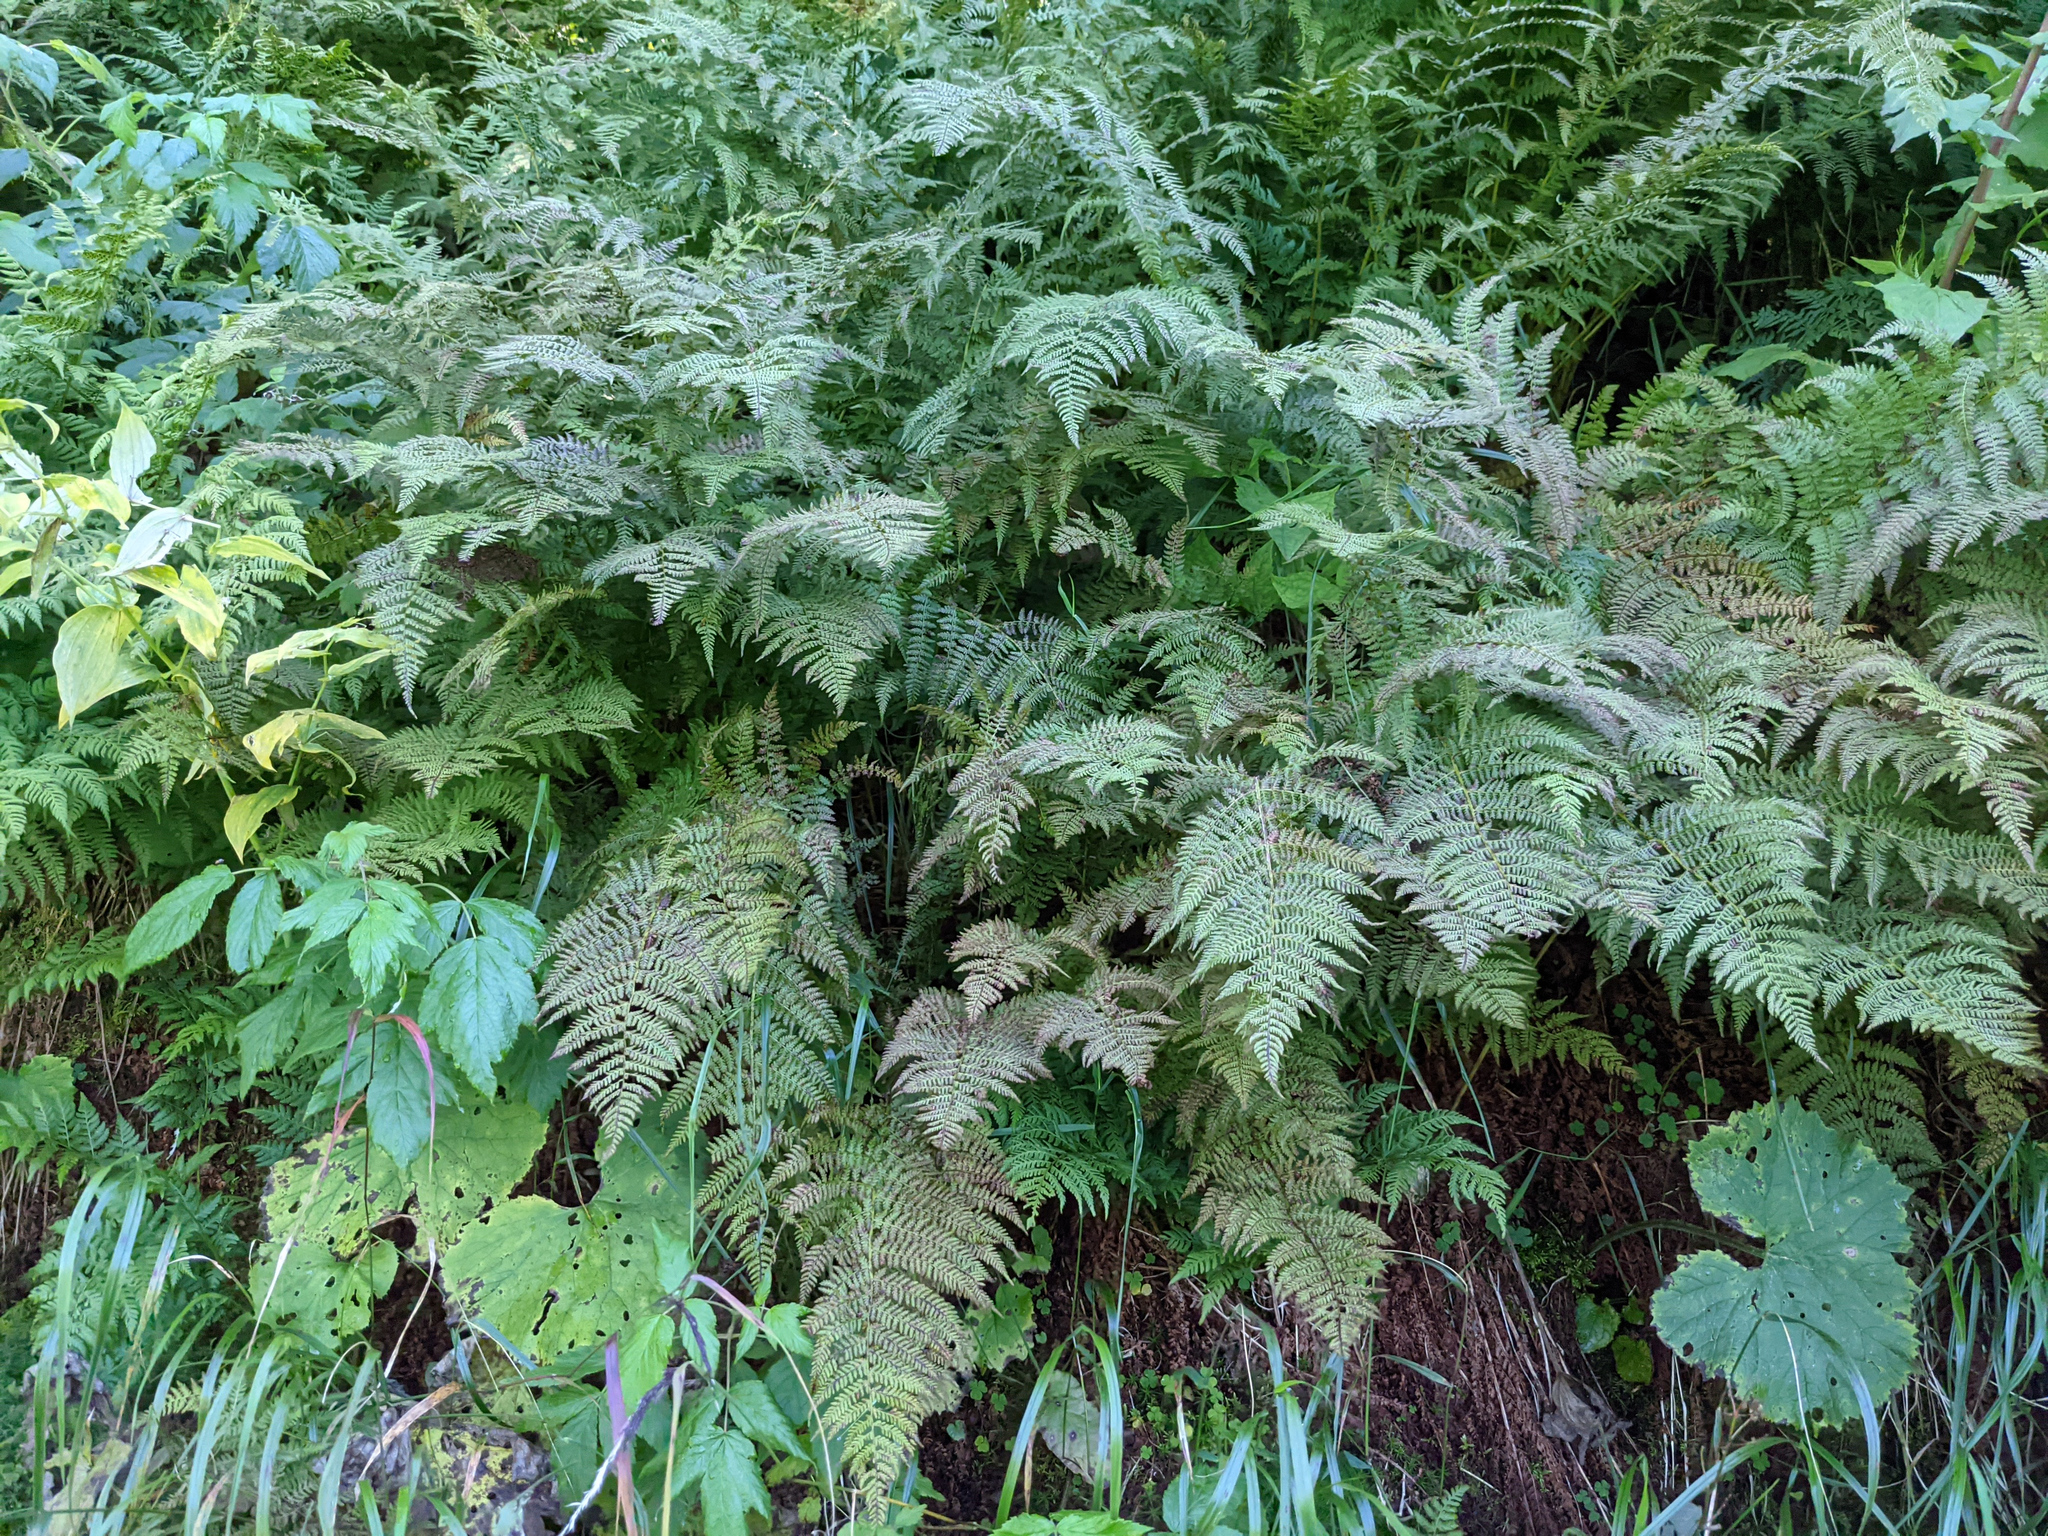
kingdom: Plantae
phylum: Tracheophyta
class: Polypodiopsida
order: Polypodiales
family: Athyriaceae
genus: Pseudathyrium
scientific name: Pseudathyrium alpestre
